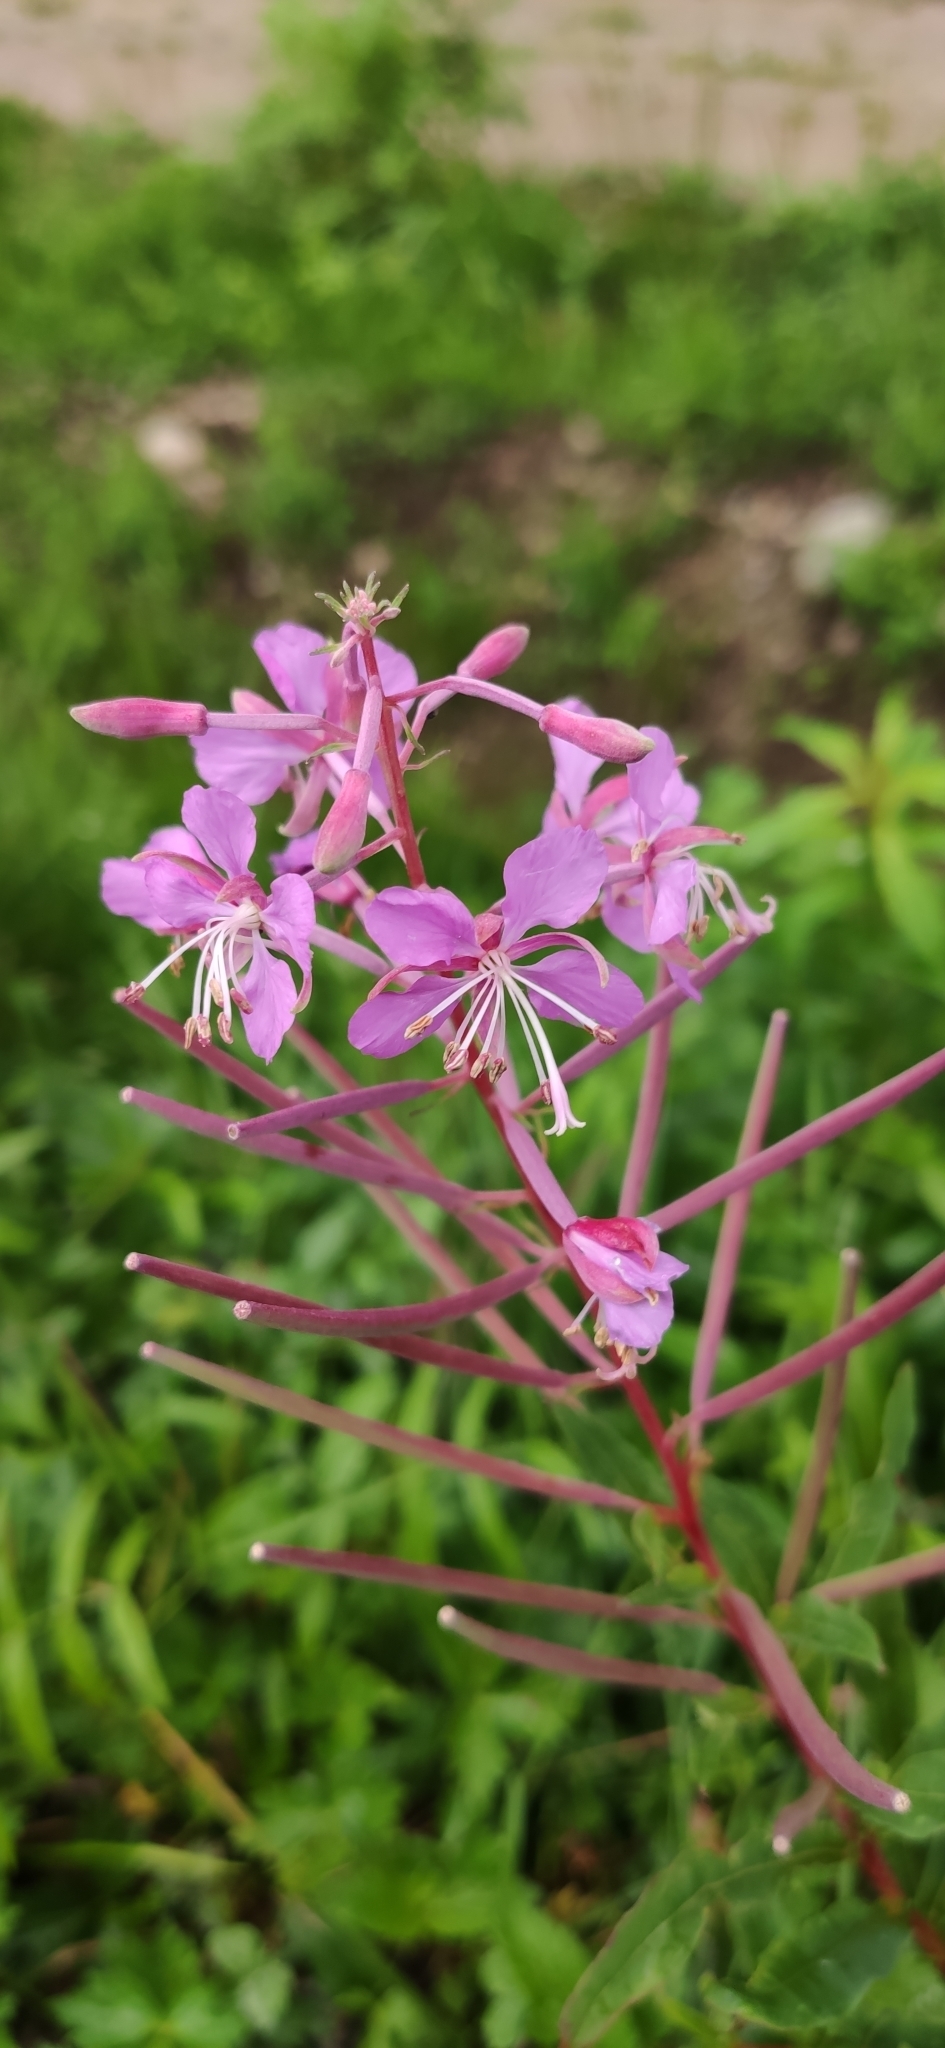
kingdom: Plantae
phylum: Tracheophyta
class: Magnoliopsida
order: Myrtales
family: Onagraceae
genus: Chamaenerion
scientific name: Chamaenerion angustifolium
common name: Fireweed
